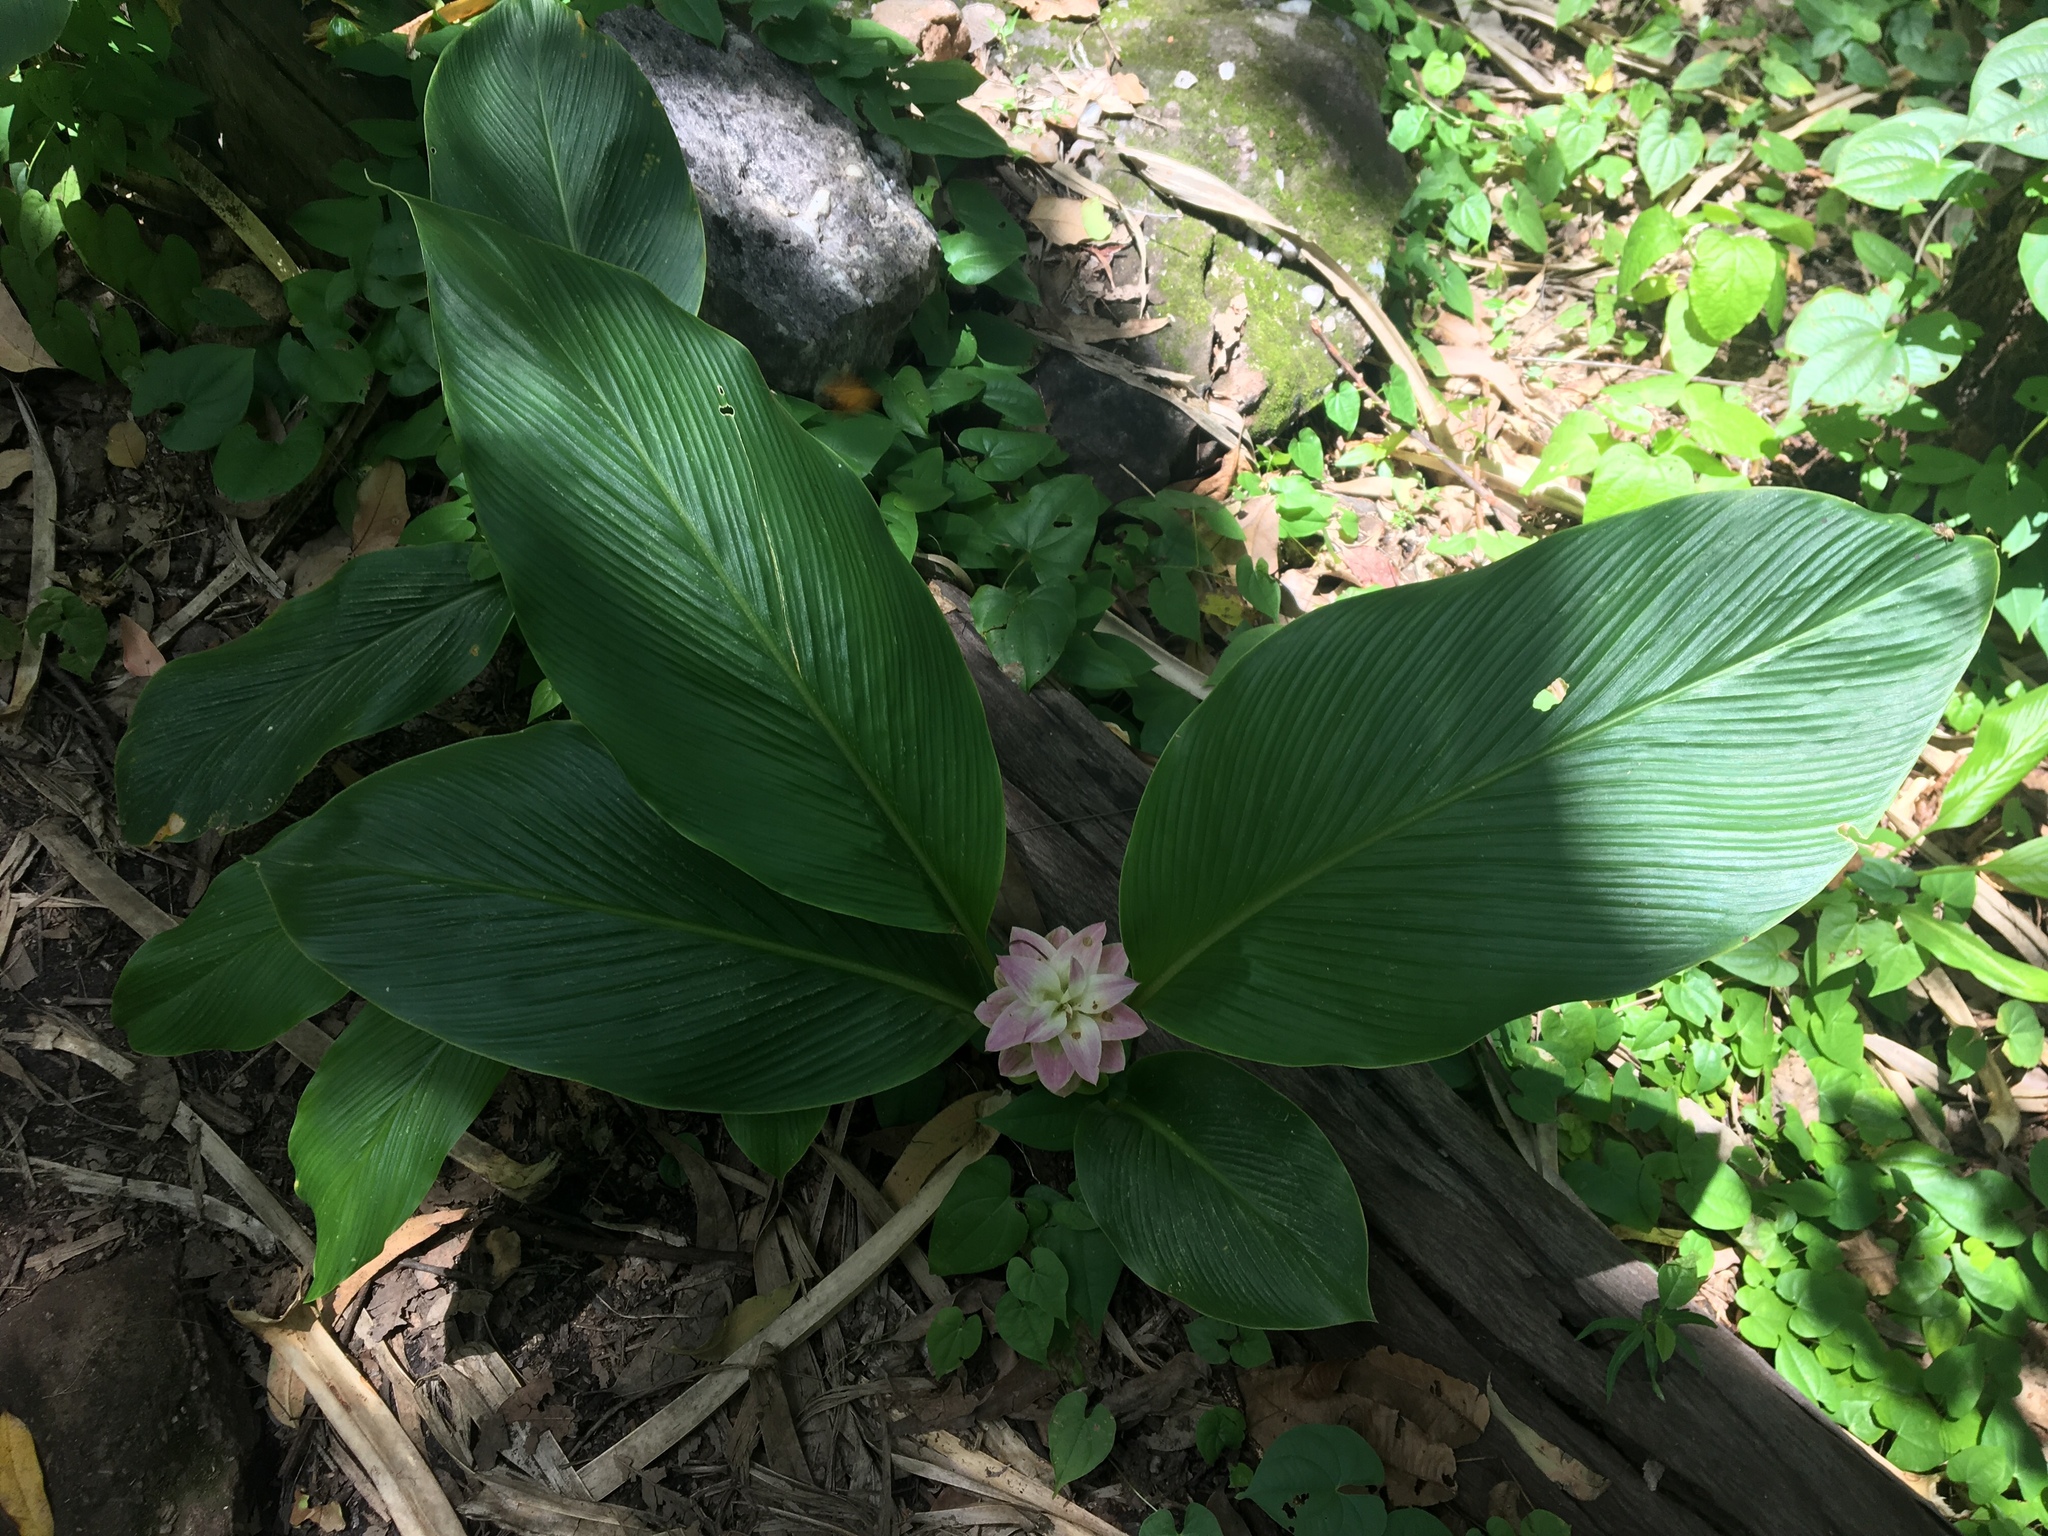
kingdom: Plantae
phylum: Tracheophyta
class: Liliopsida
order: Zingiberales
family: Zingiberaceae
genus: Curcuma
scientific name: Curcuma australasica
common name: Australian wild turmeric
